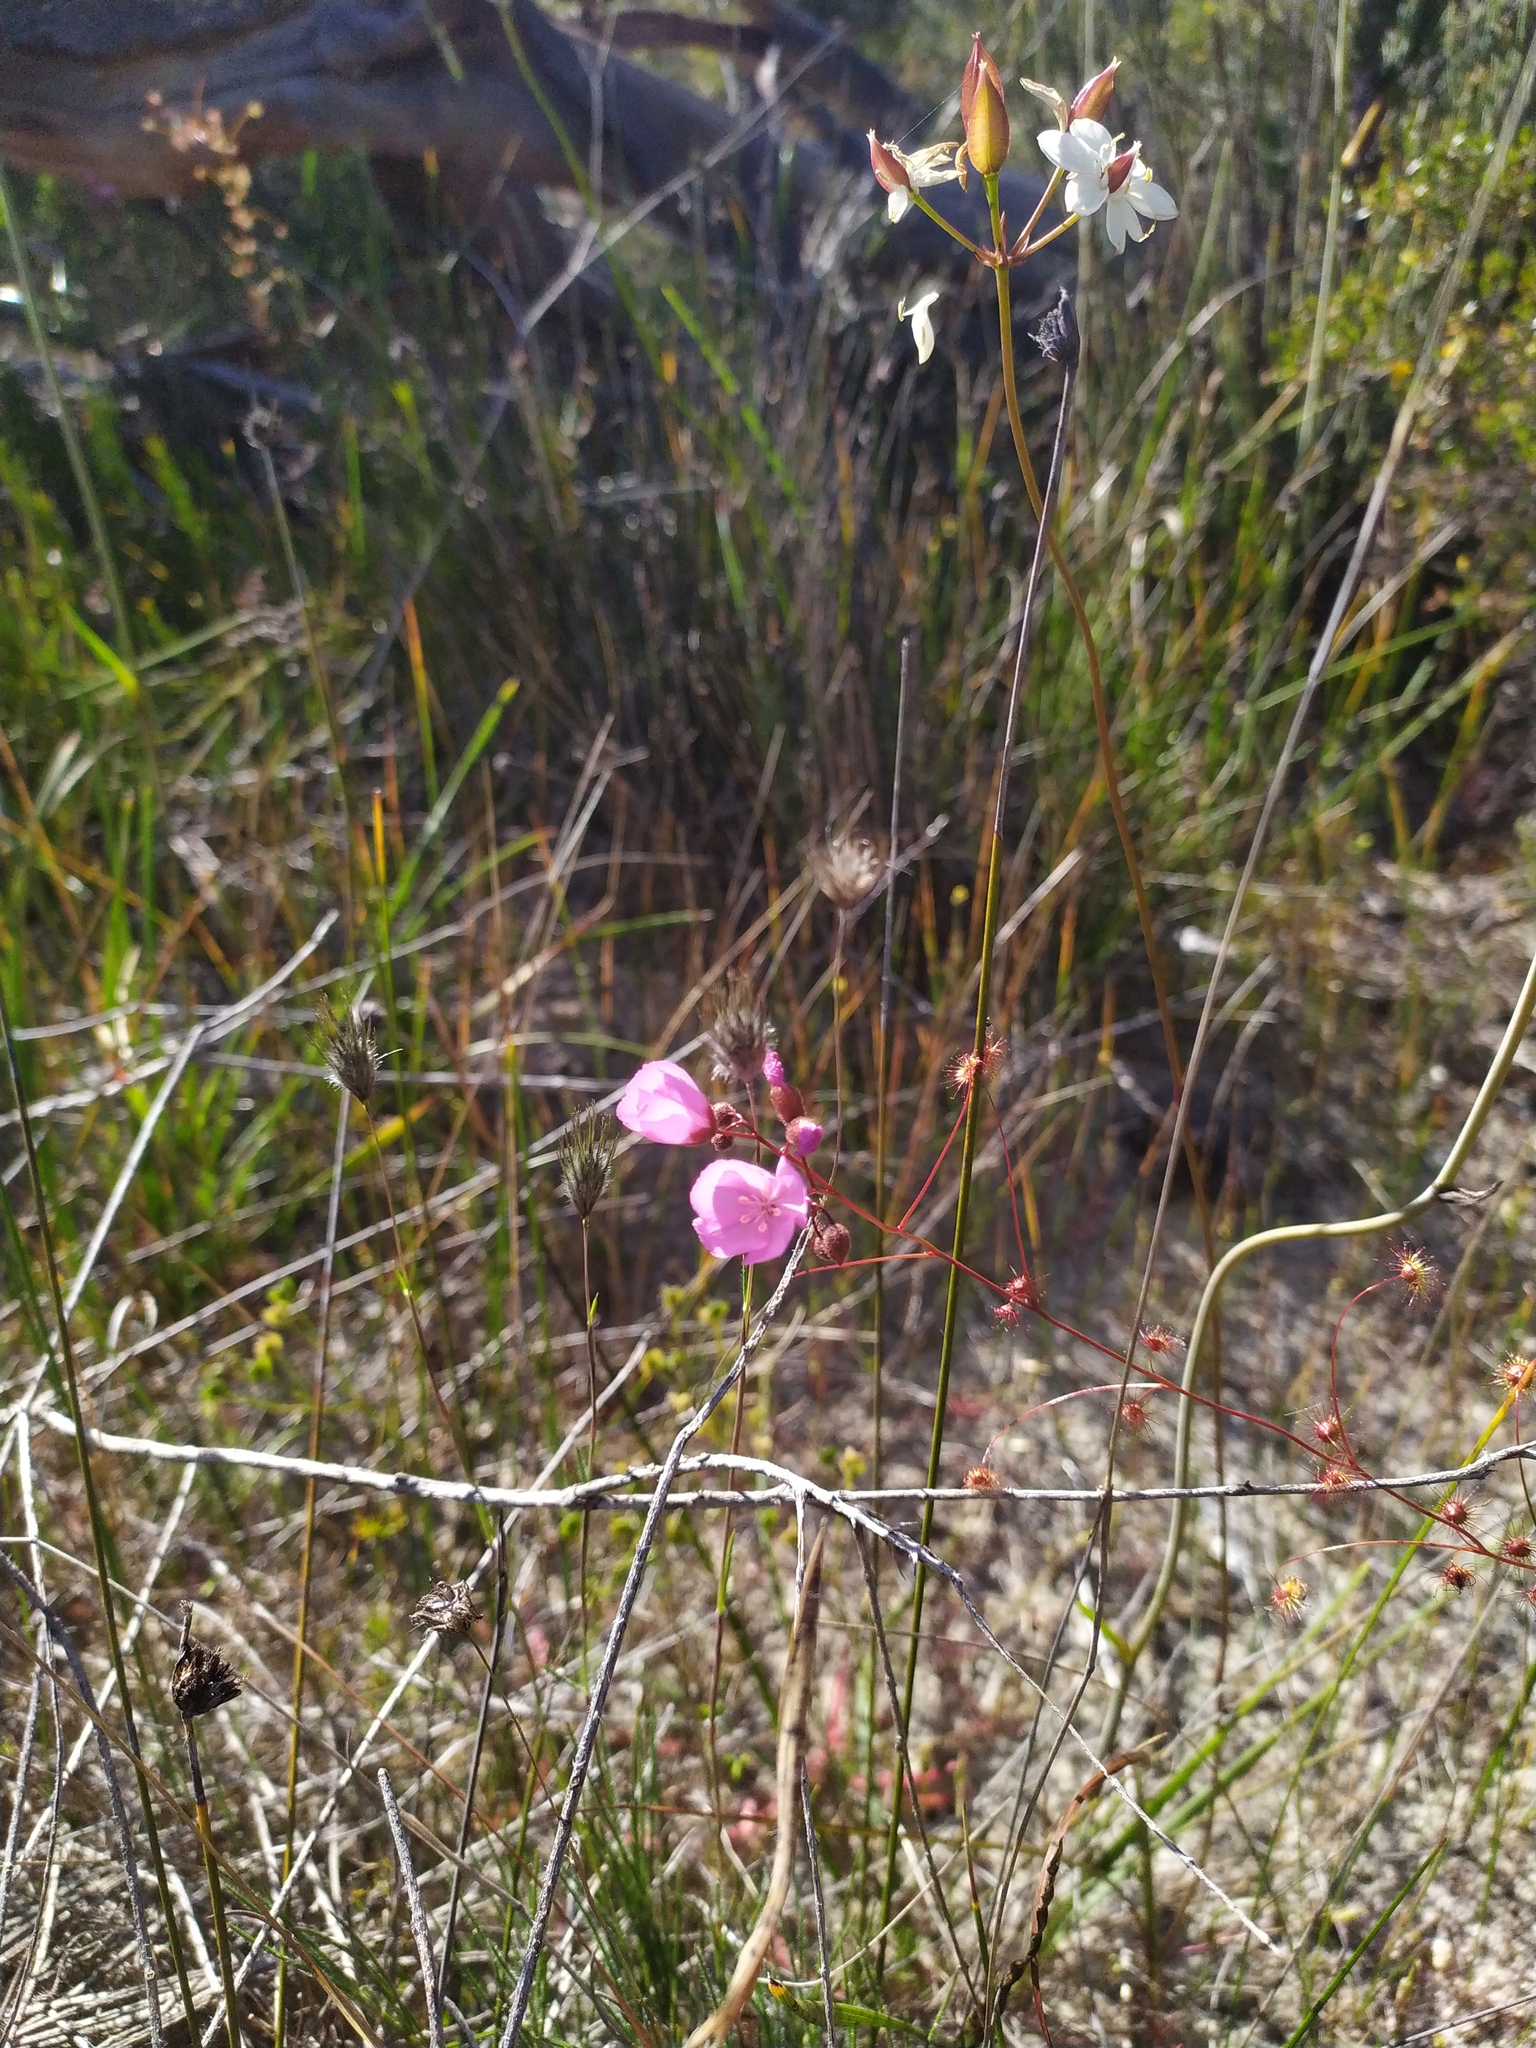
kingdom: Plantae
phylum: Tracheophyta
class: Magnoliopsida
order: Caryophyllales
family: Droseraceae
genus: Drosera
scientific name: Drosera
